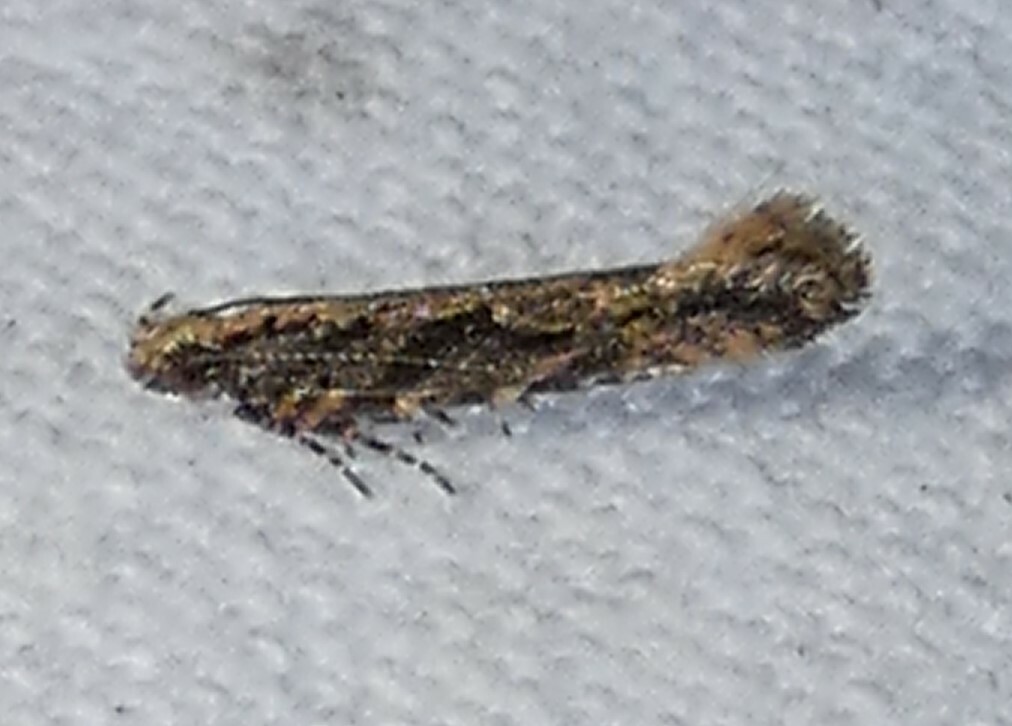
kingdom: Animalia
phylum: Arthropoda
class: Insecta
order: Lepidoptera
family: Gelechiidae
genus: Aristotelia
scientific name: Aristotelia rubidella
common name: Ruby aristotelia moth
